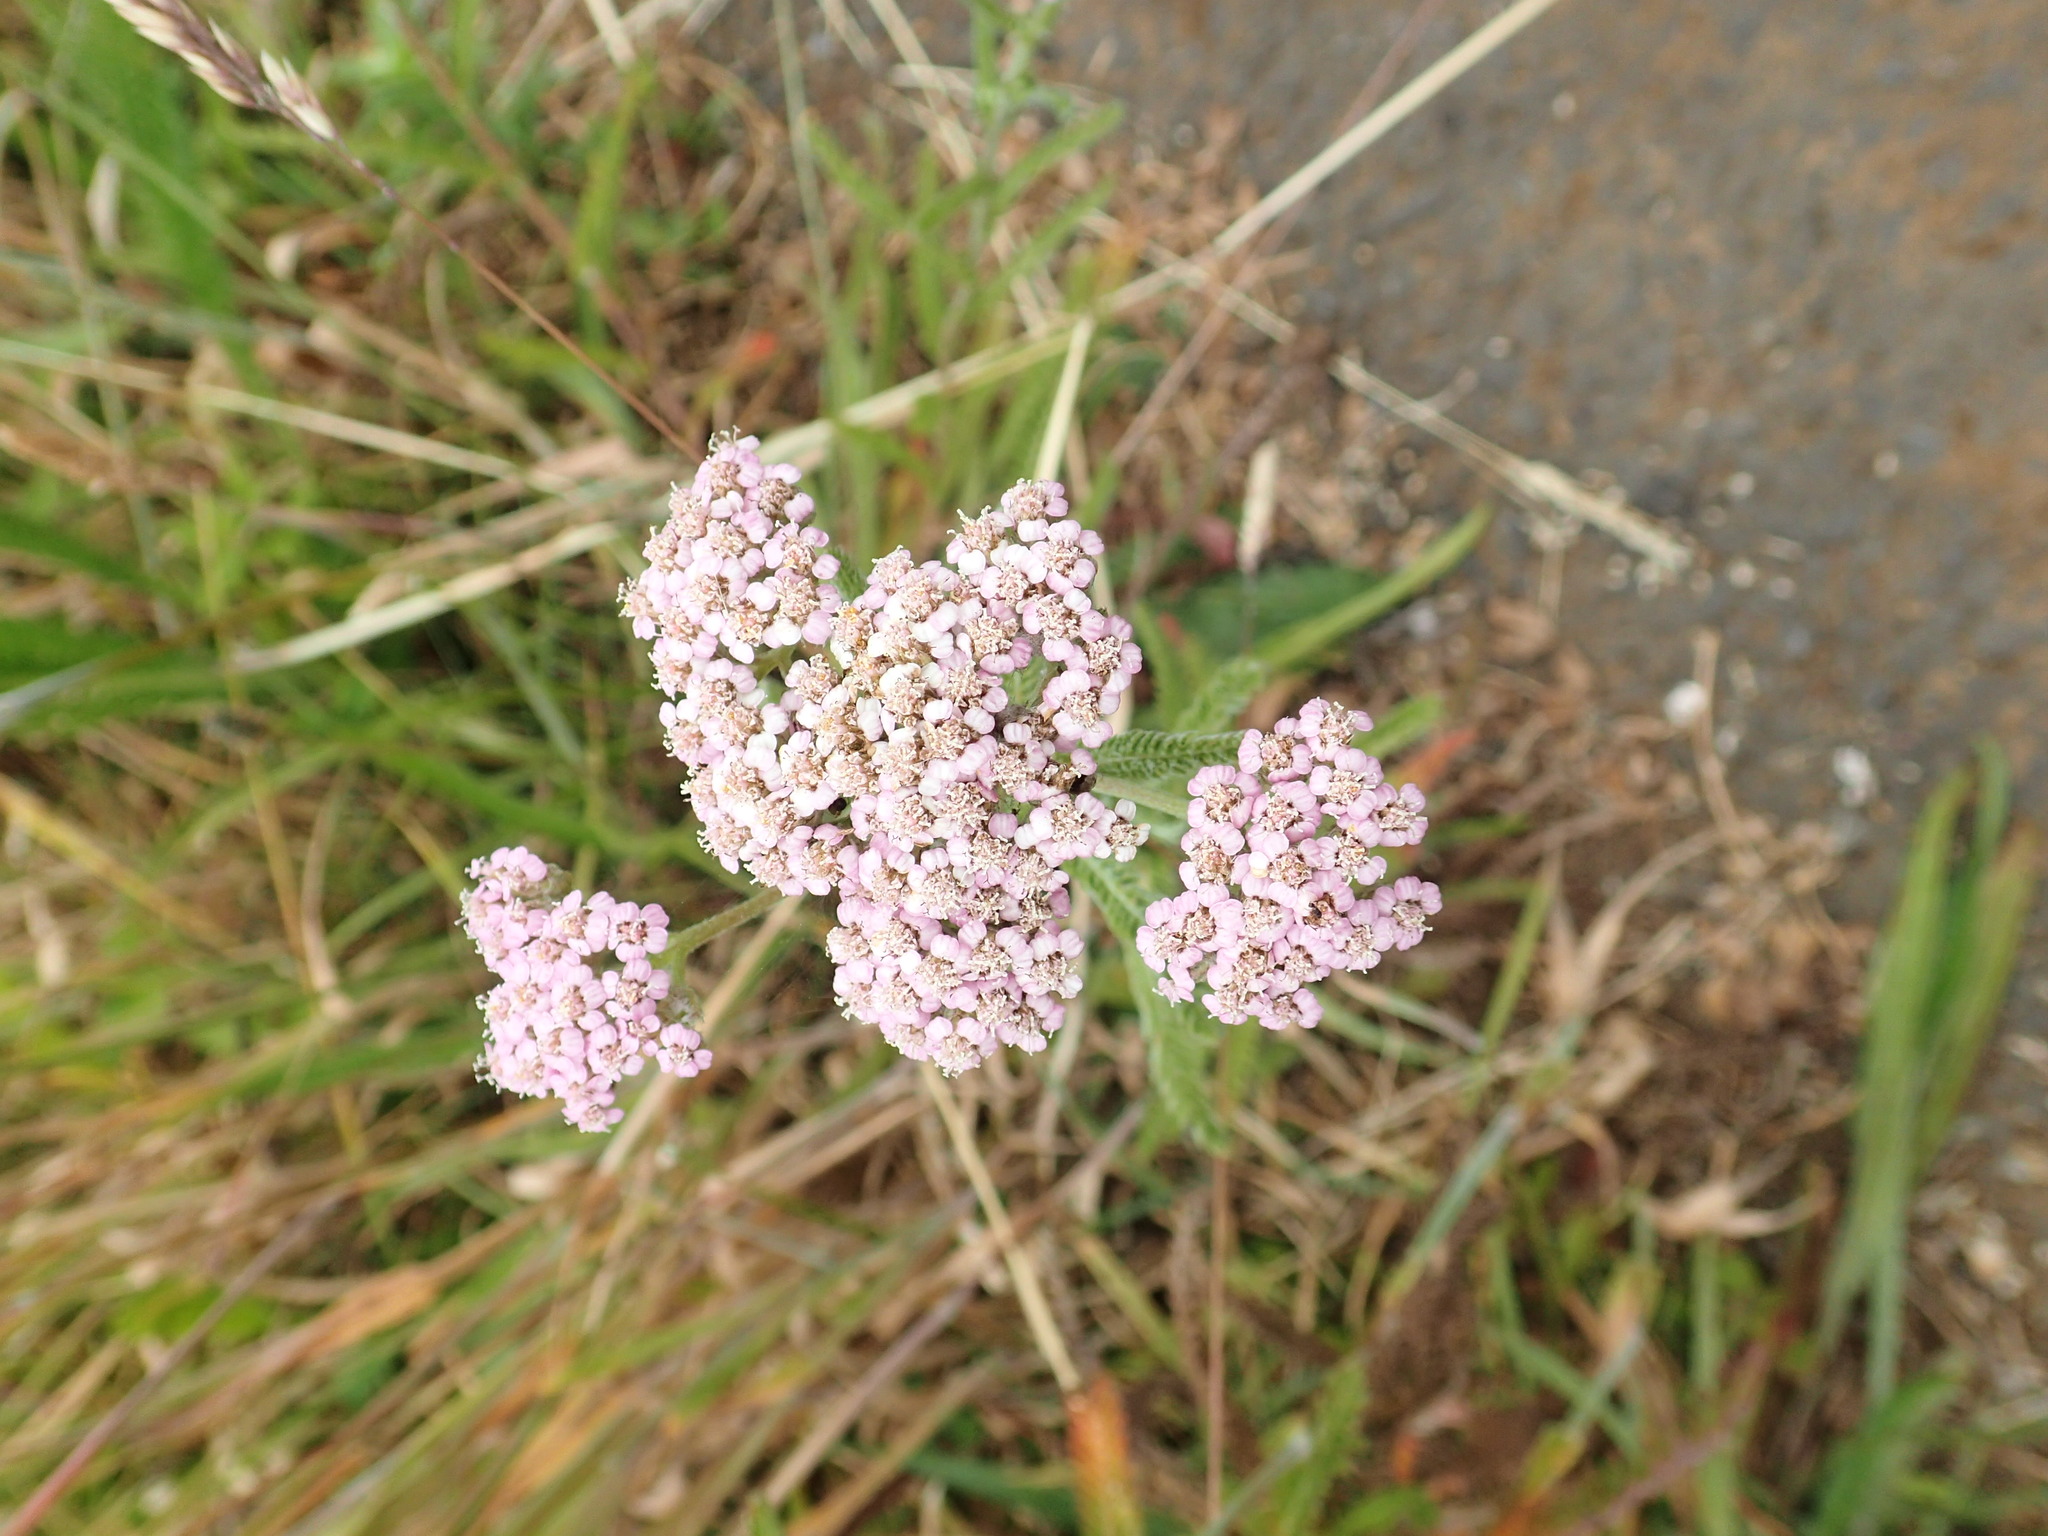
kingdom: Plantae
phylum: Tracheophyta
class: Magnoliopsida
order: Asterales
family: Asteraceae
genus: Achillea
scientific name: Achillea millefolium
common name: Yarrow
